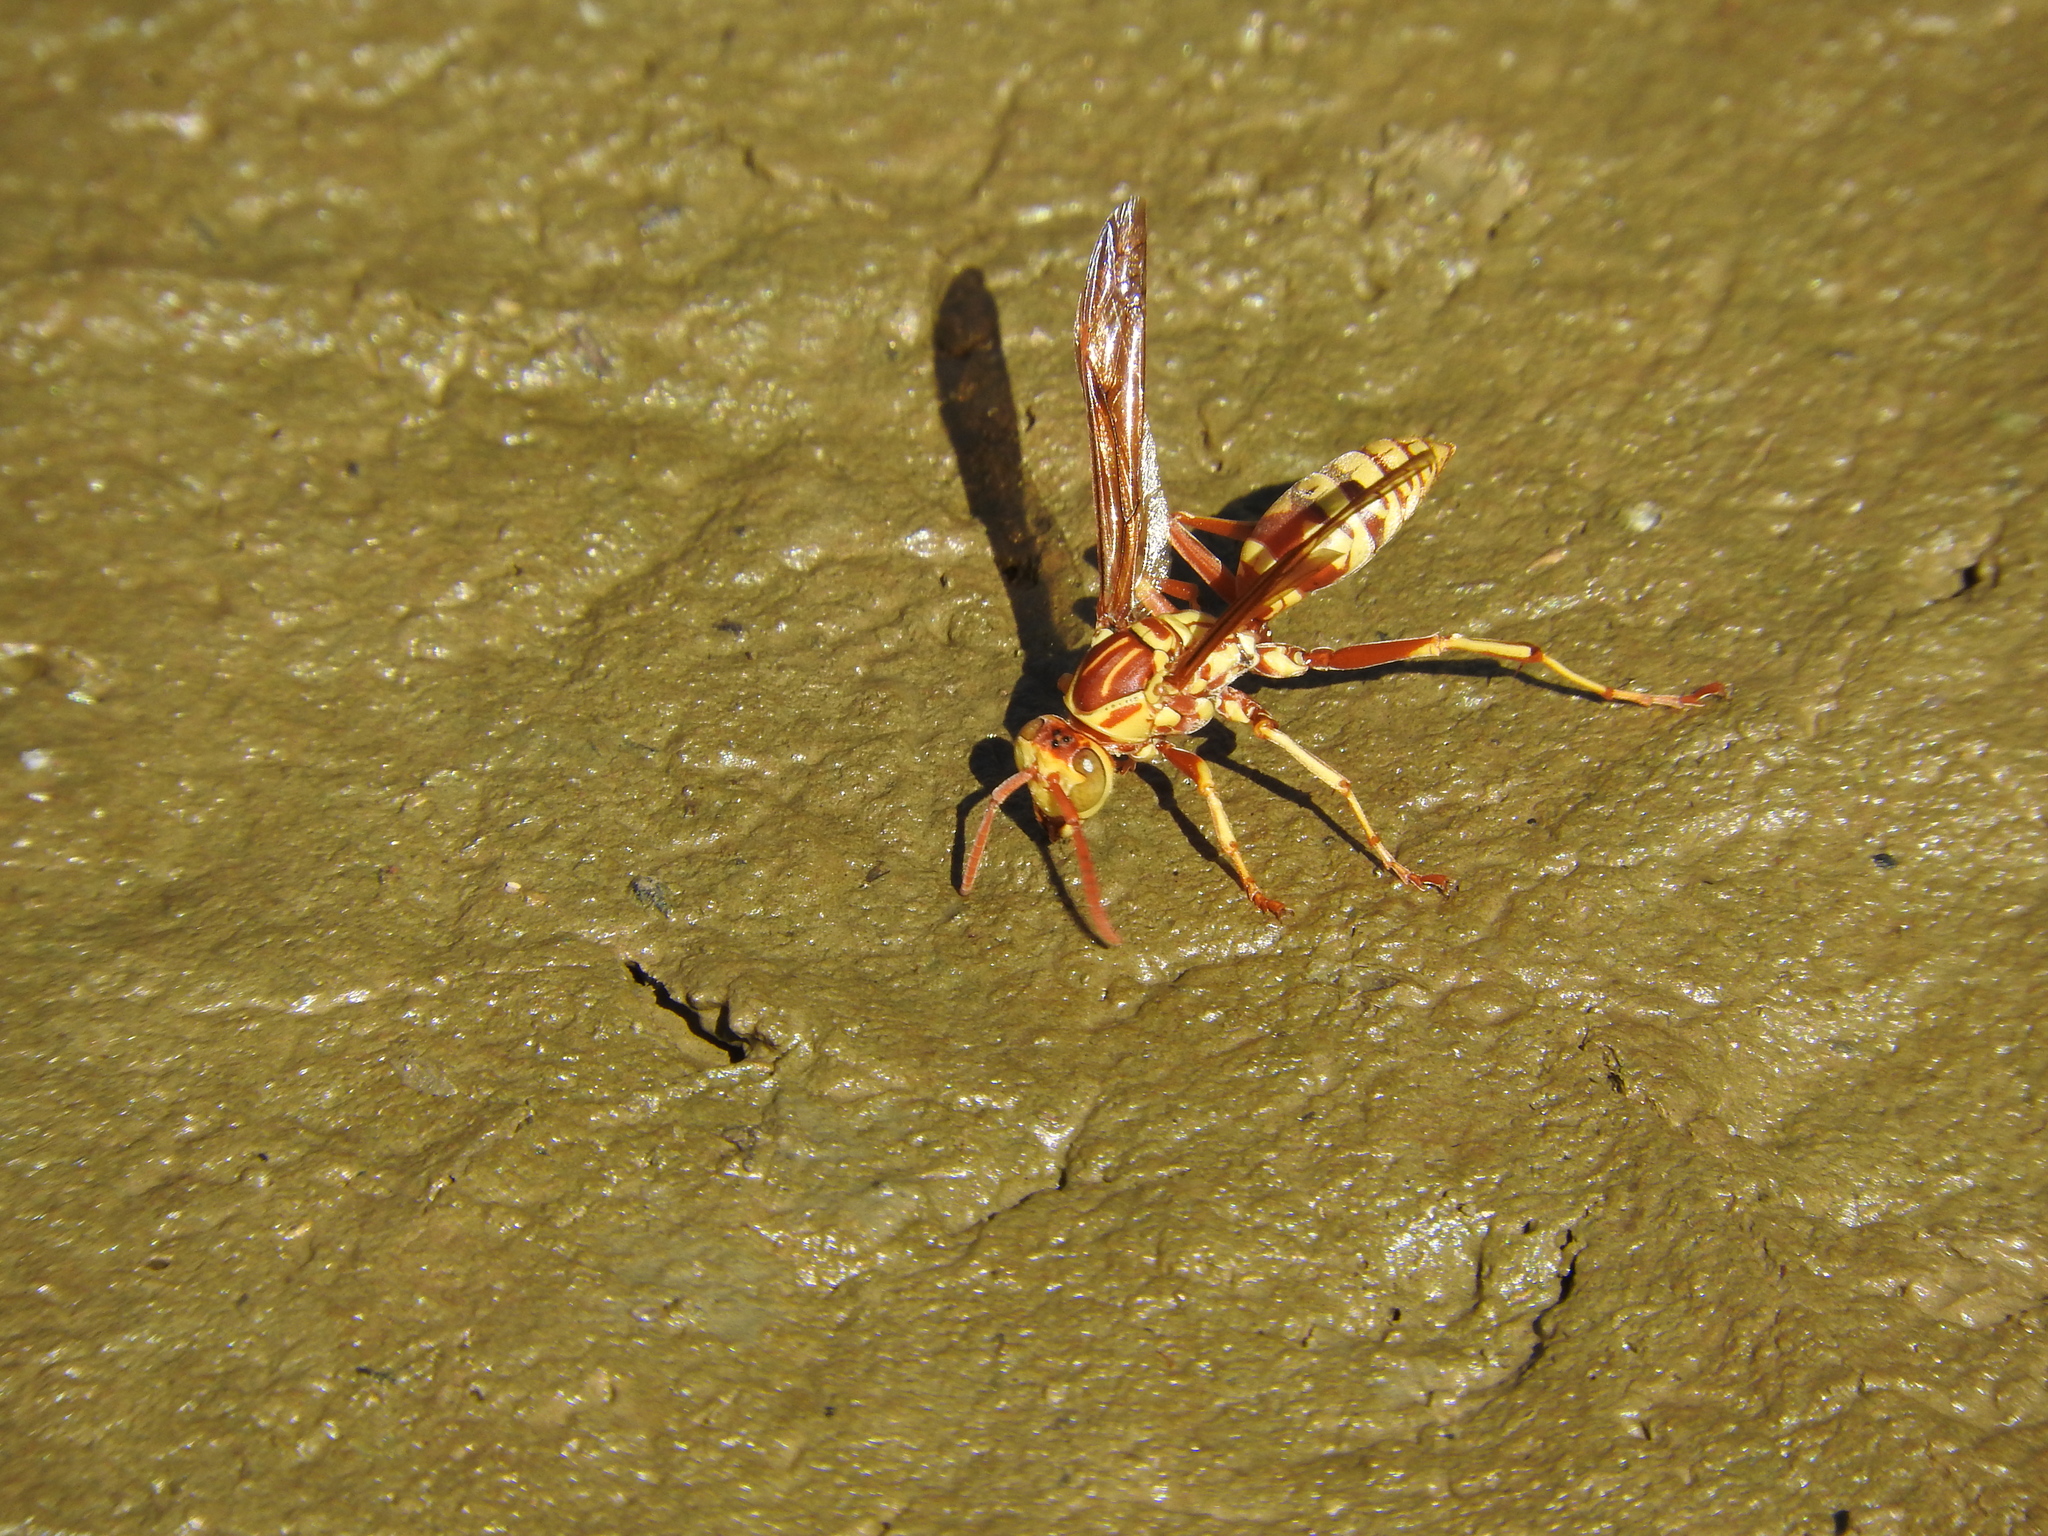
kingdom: Animalia
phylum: Arthropoda
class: Insecta
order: Hymenoptera
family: Eumenidae
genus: Polistes
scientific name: Polistes apachus
